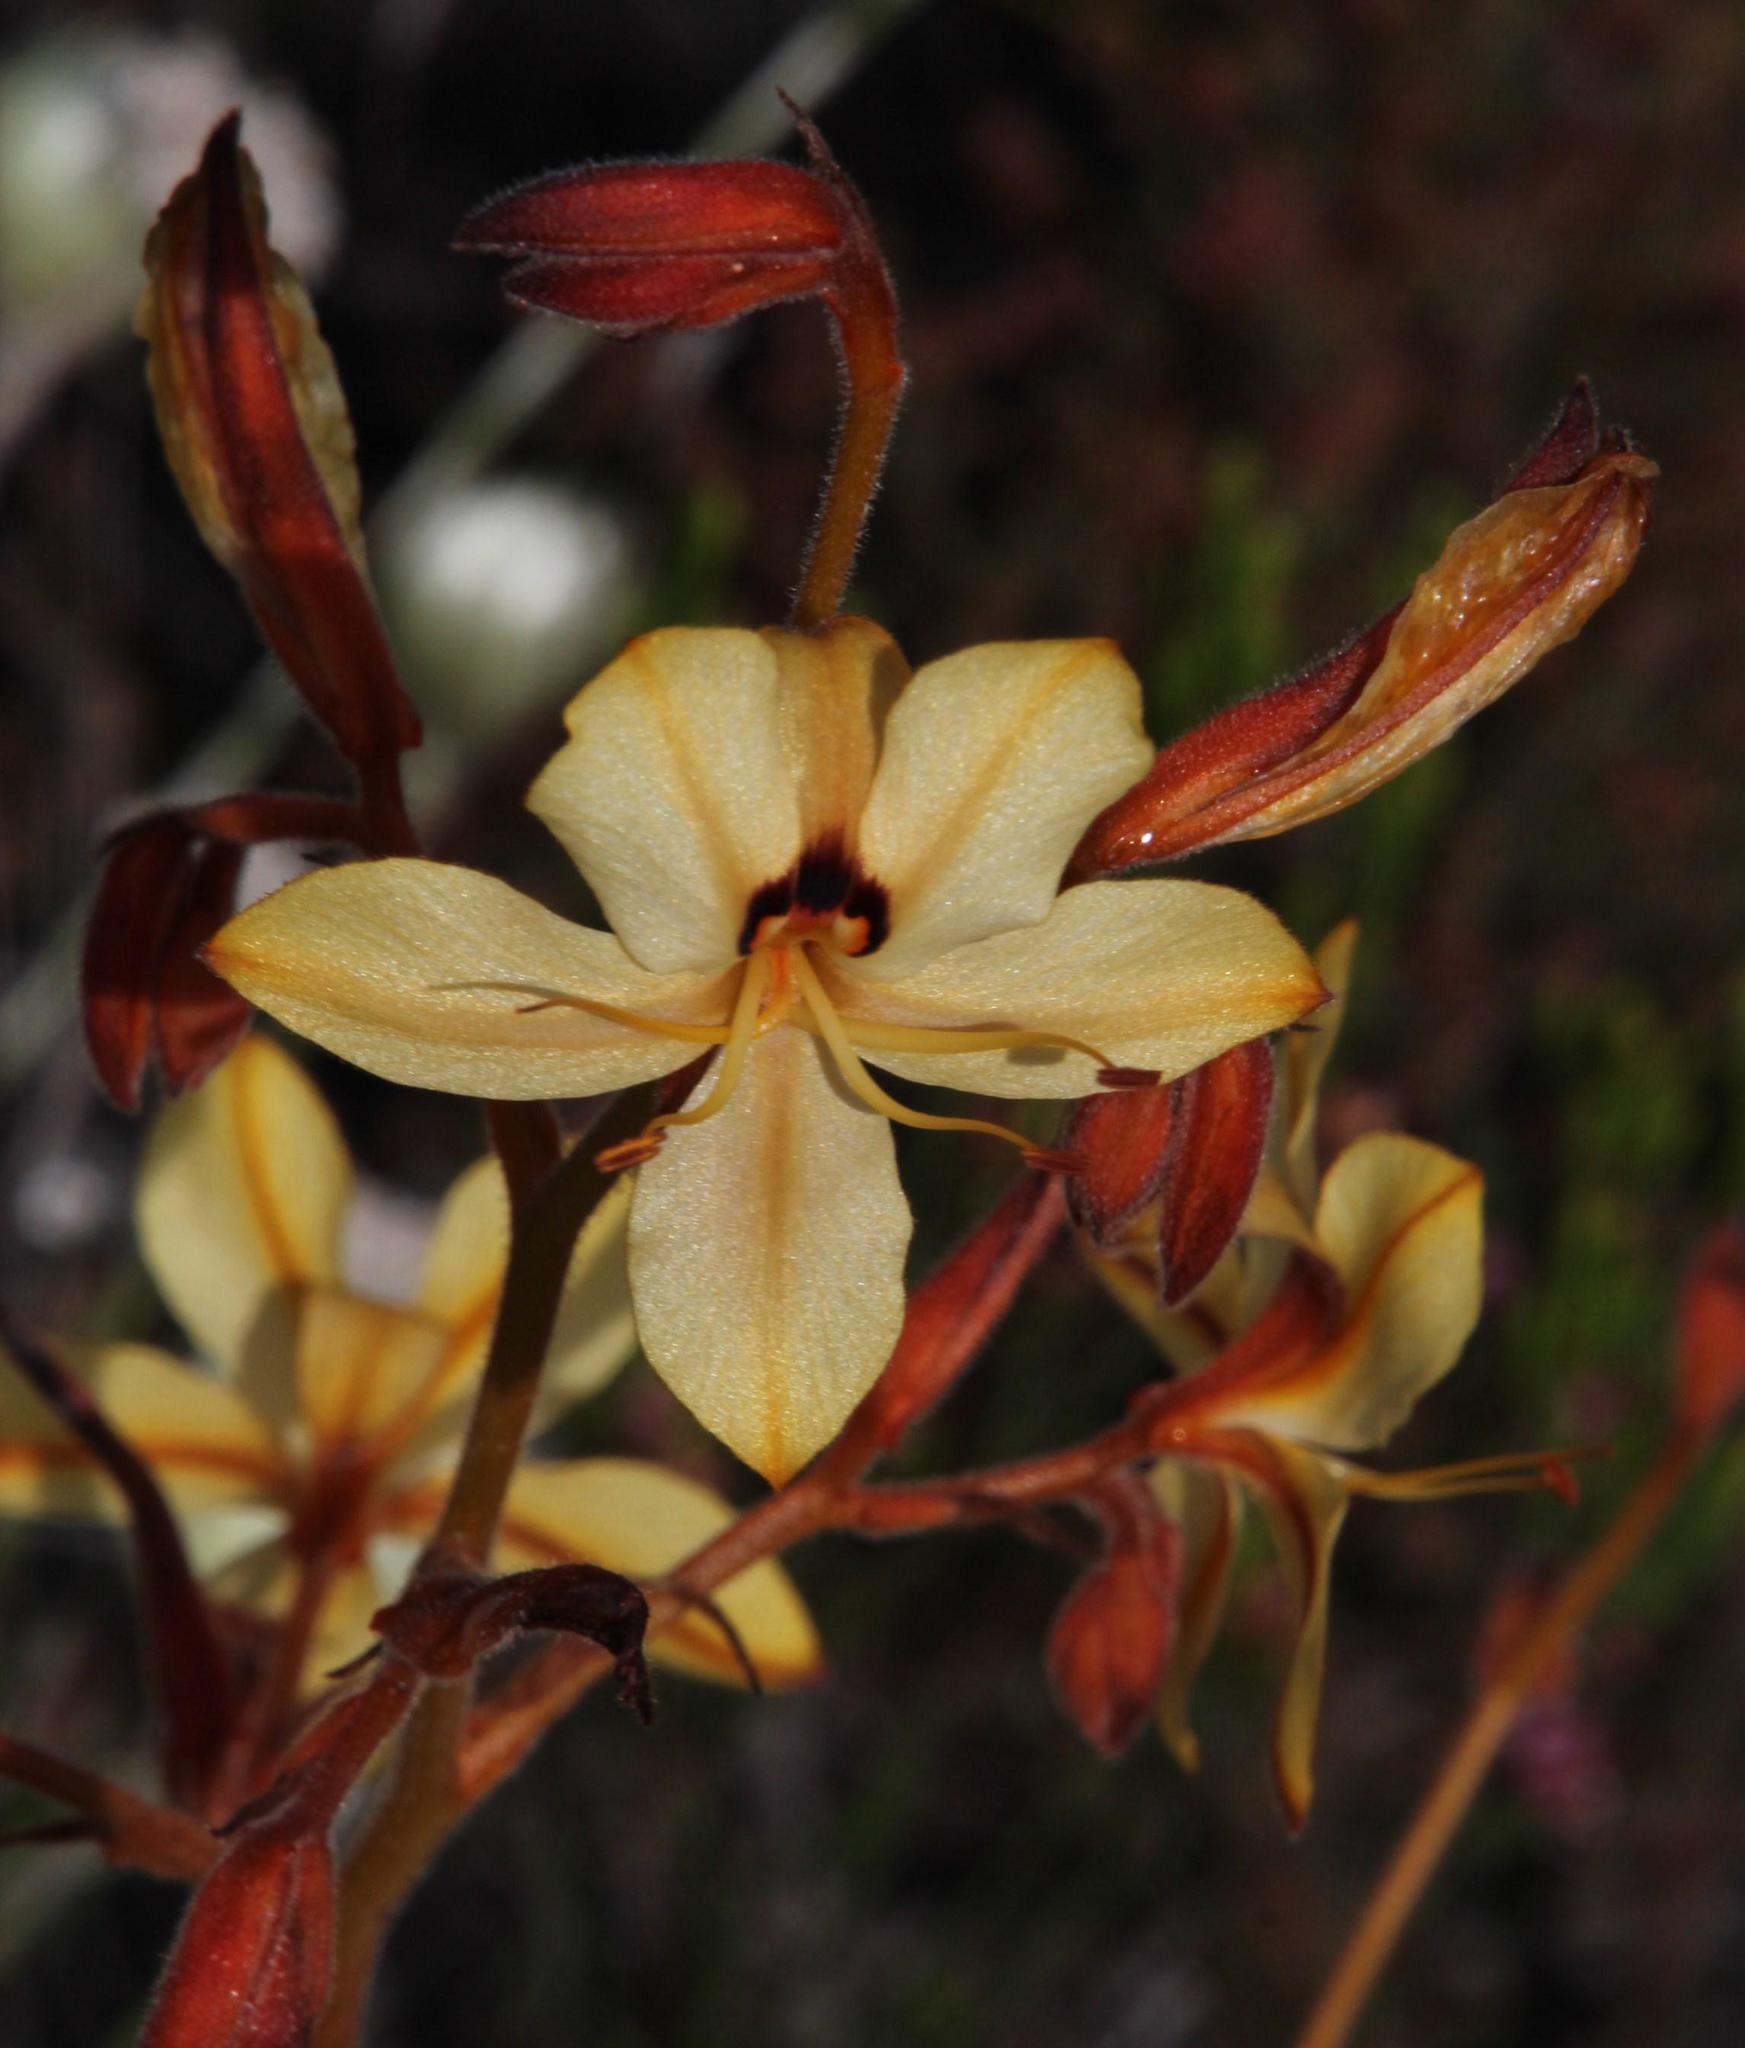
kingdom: Plantae
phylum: Tracheophyta
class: Liliopsida
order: Commelinales
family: Haemodoraceae
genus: Wachendorfia
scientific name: Wachendorfia paniculata
